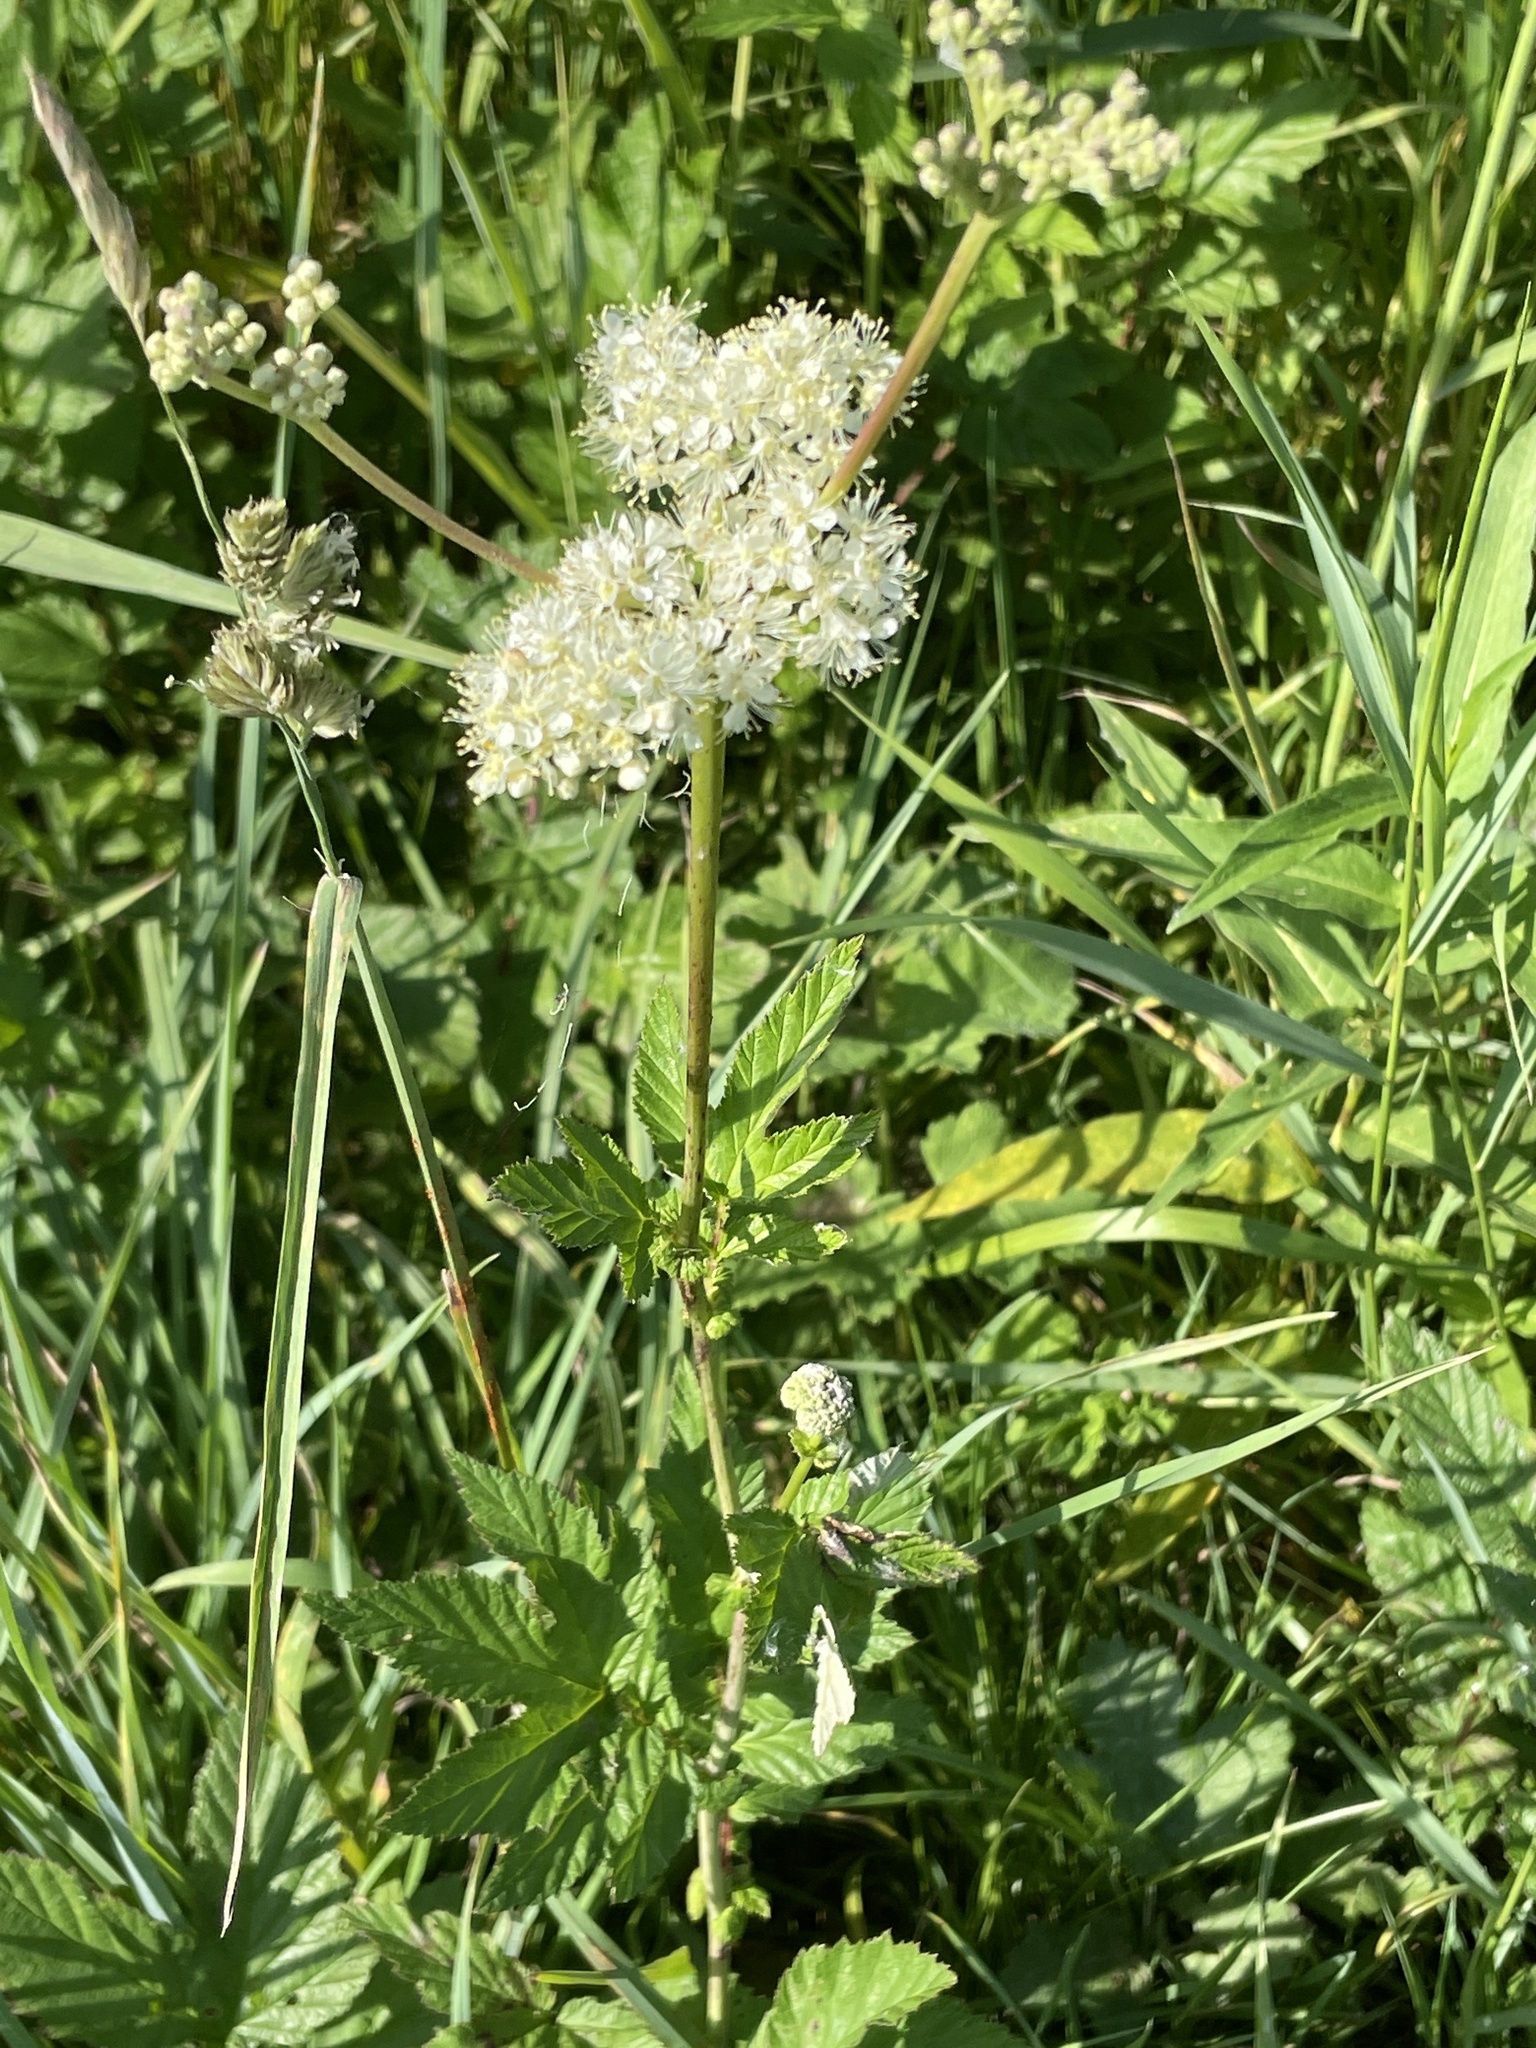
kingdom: Plantae
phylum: Tracheophyta
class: Magnoliopsida
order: Rosales
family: Rosaceae
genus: Filipendula
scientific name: Filipendula ulmaria
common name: Meadowsweet
